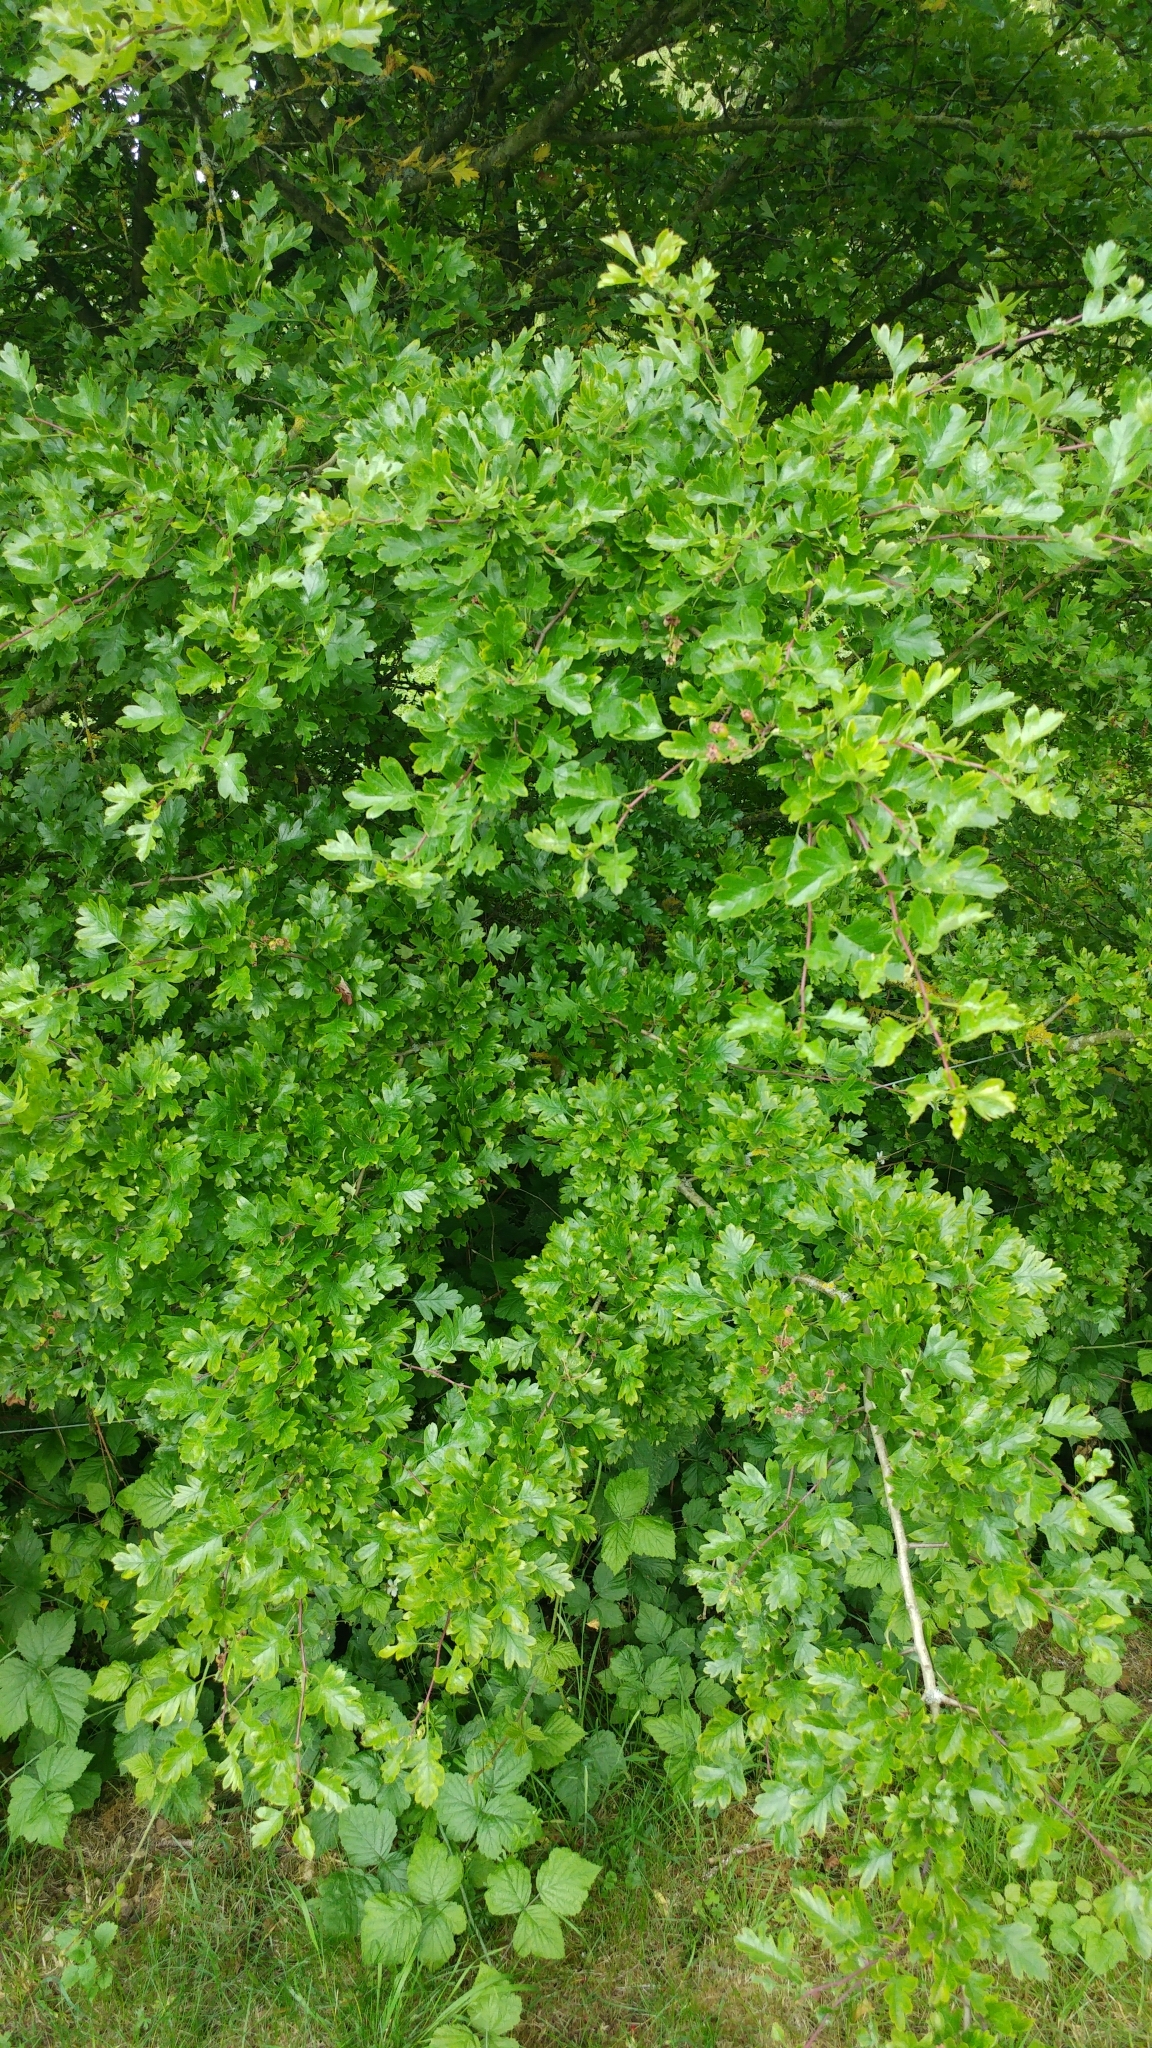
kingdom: Plantae
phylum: Tracheophyta
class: Magnoliopsida
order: Rosales
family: Rosaceae
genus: Crataegus
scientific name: Crataegus monogyna
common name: Hawthorn
